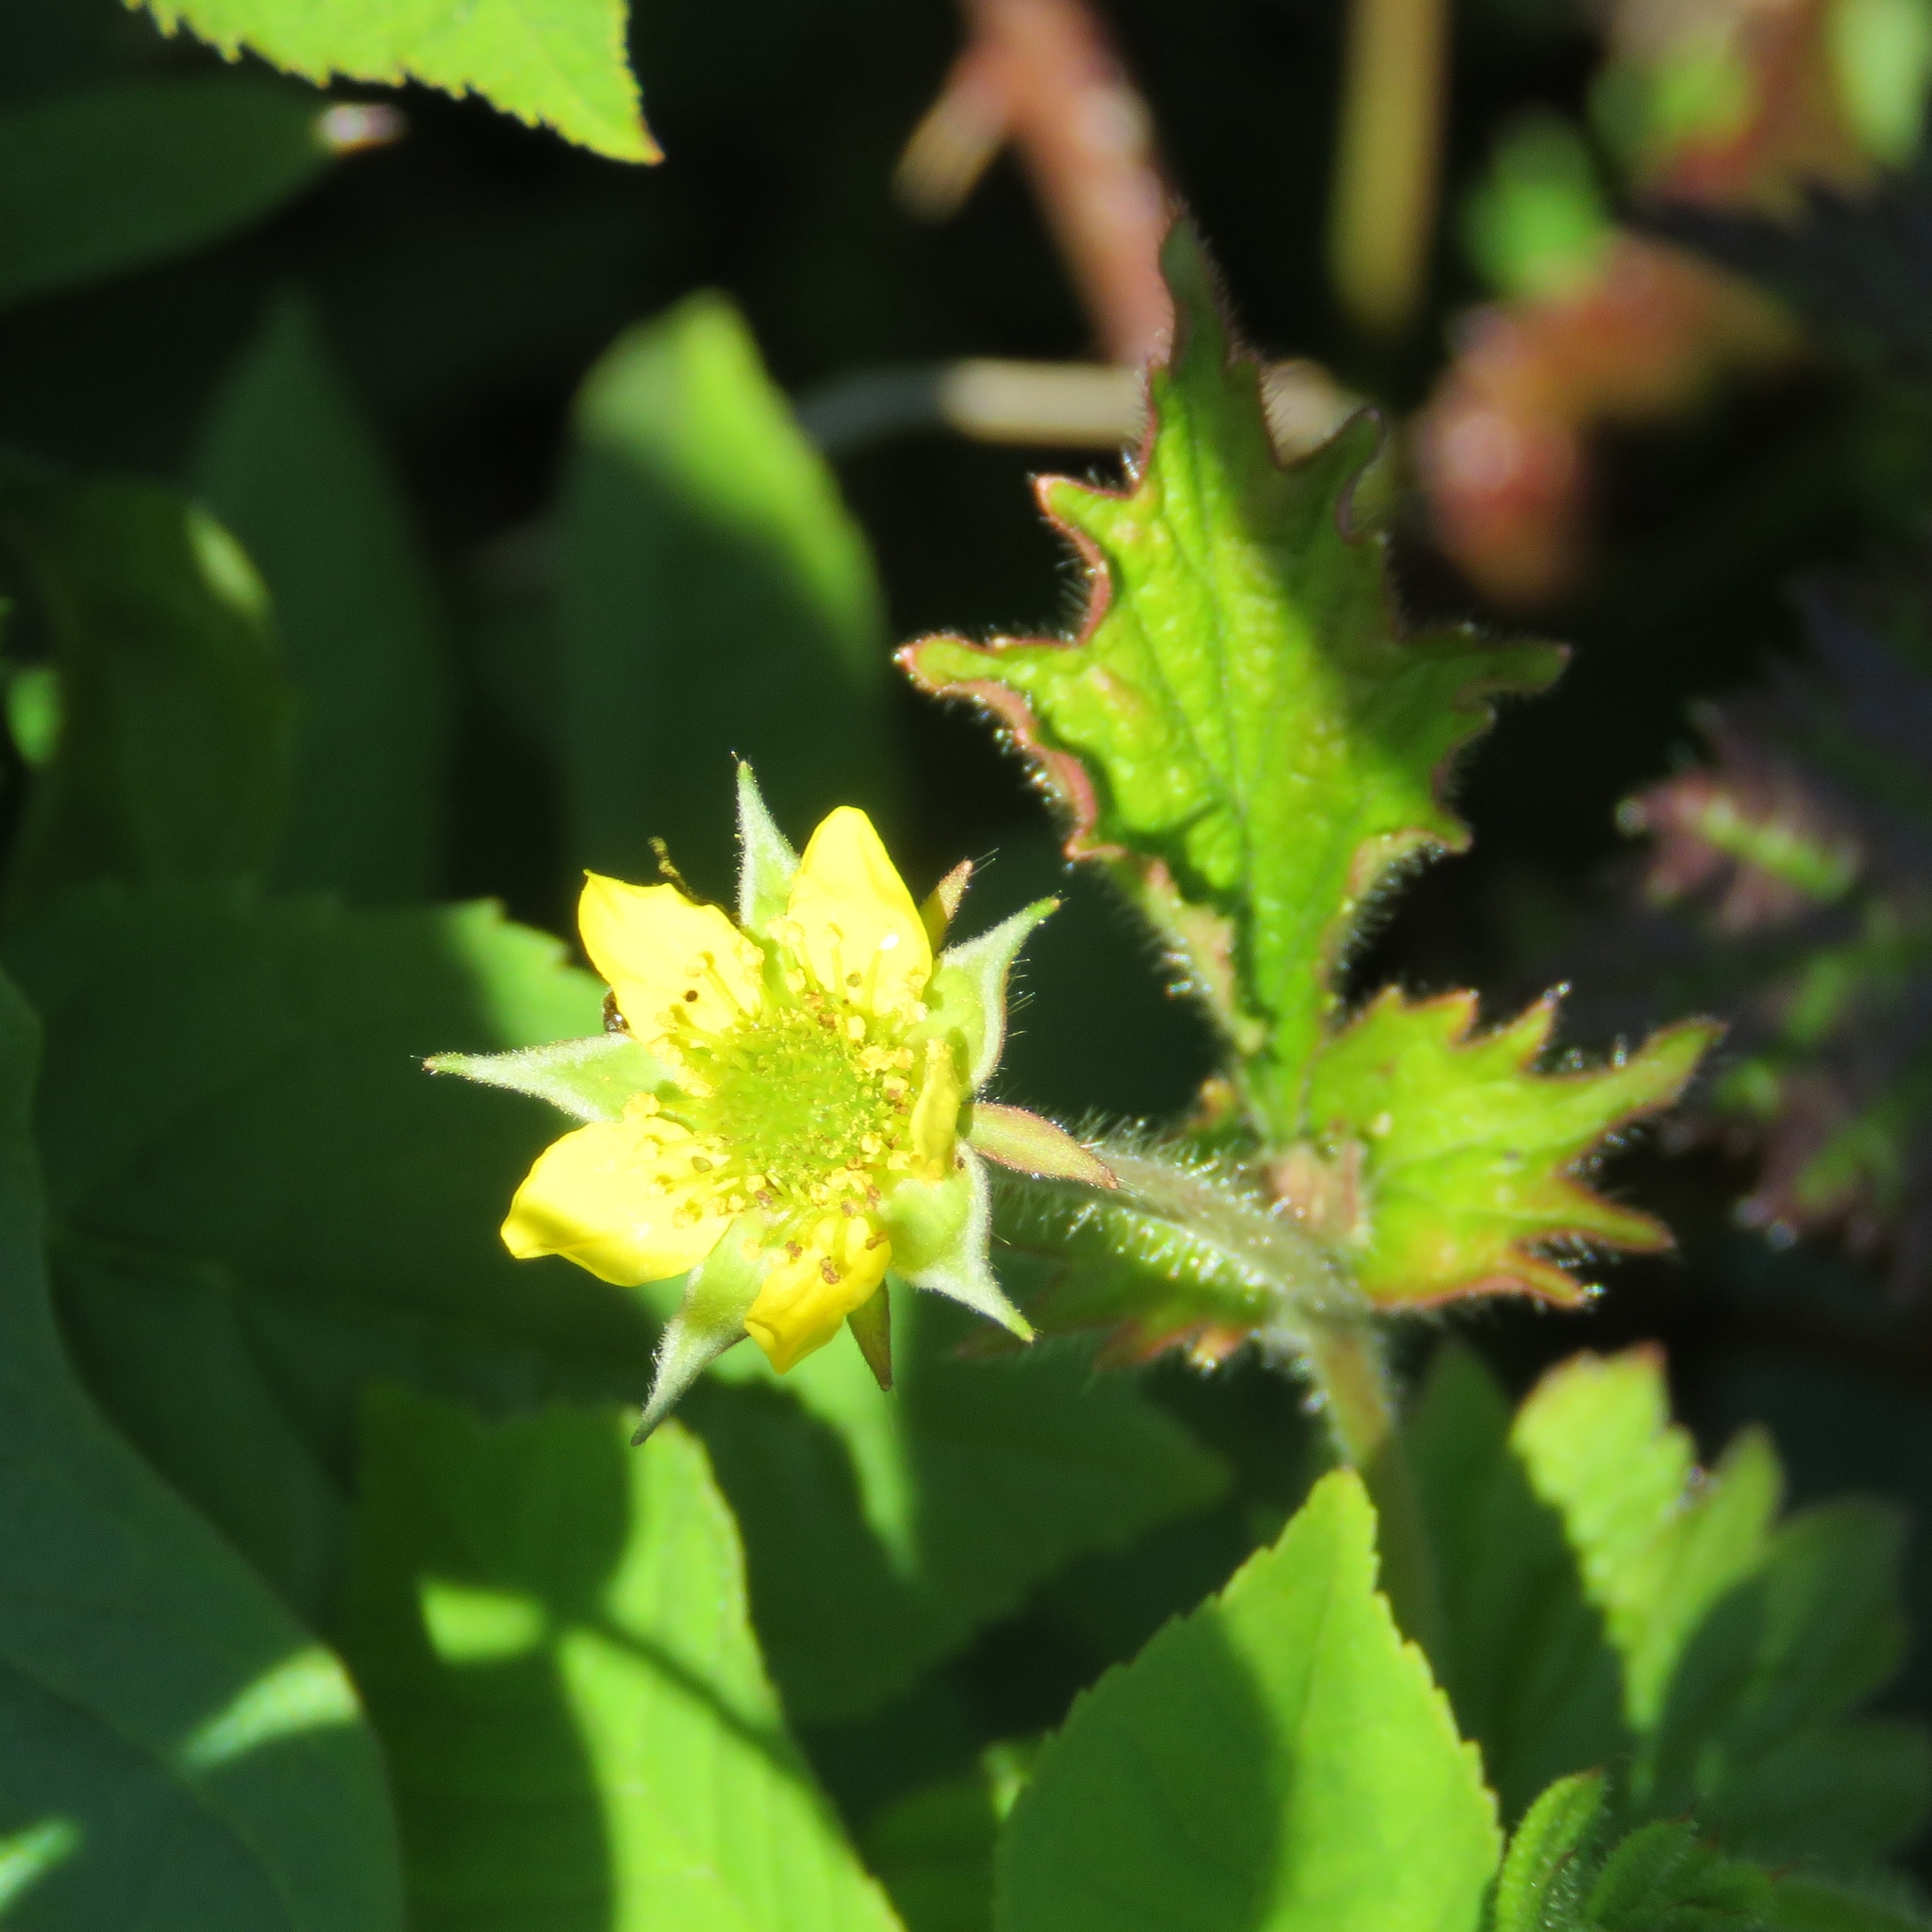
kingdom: Plantae
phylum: Tracheophyta
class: Magnoliopsida
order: Rosales
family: Rosaceae
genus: Geum
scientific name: Geum urbanum
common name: Wood avens
